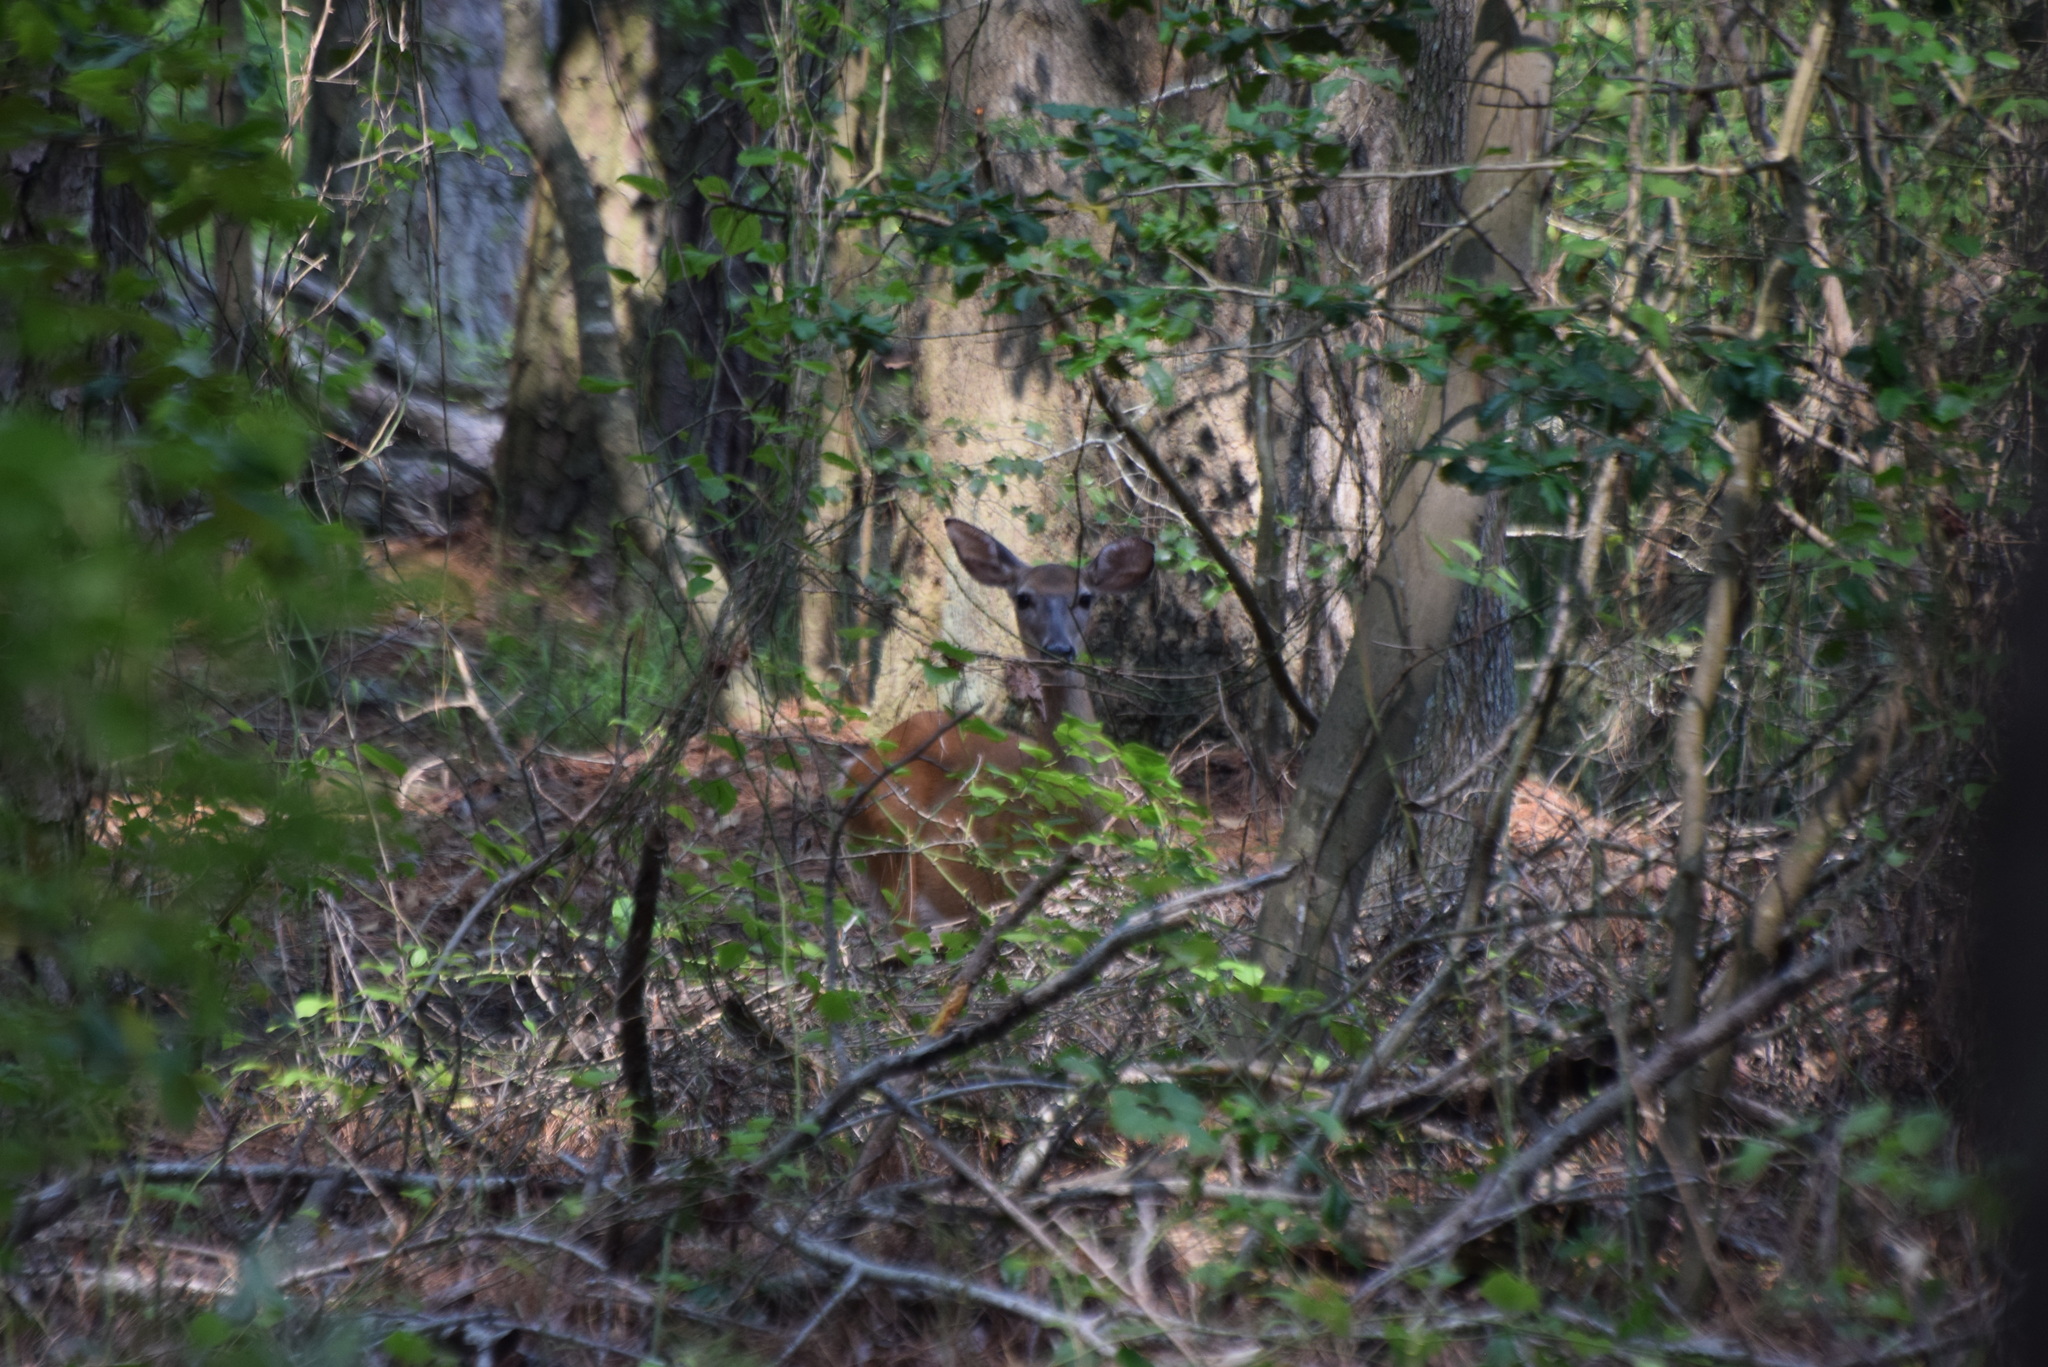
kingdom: Animalia
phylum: Chordata
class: Mammalia
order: Artiodactyla
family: Cervidae
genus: Odocoileus
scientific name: Odocoileus virginianus
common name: White-tailed deer
